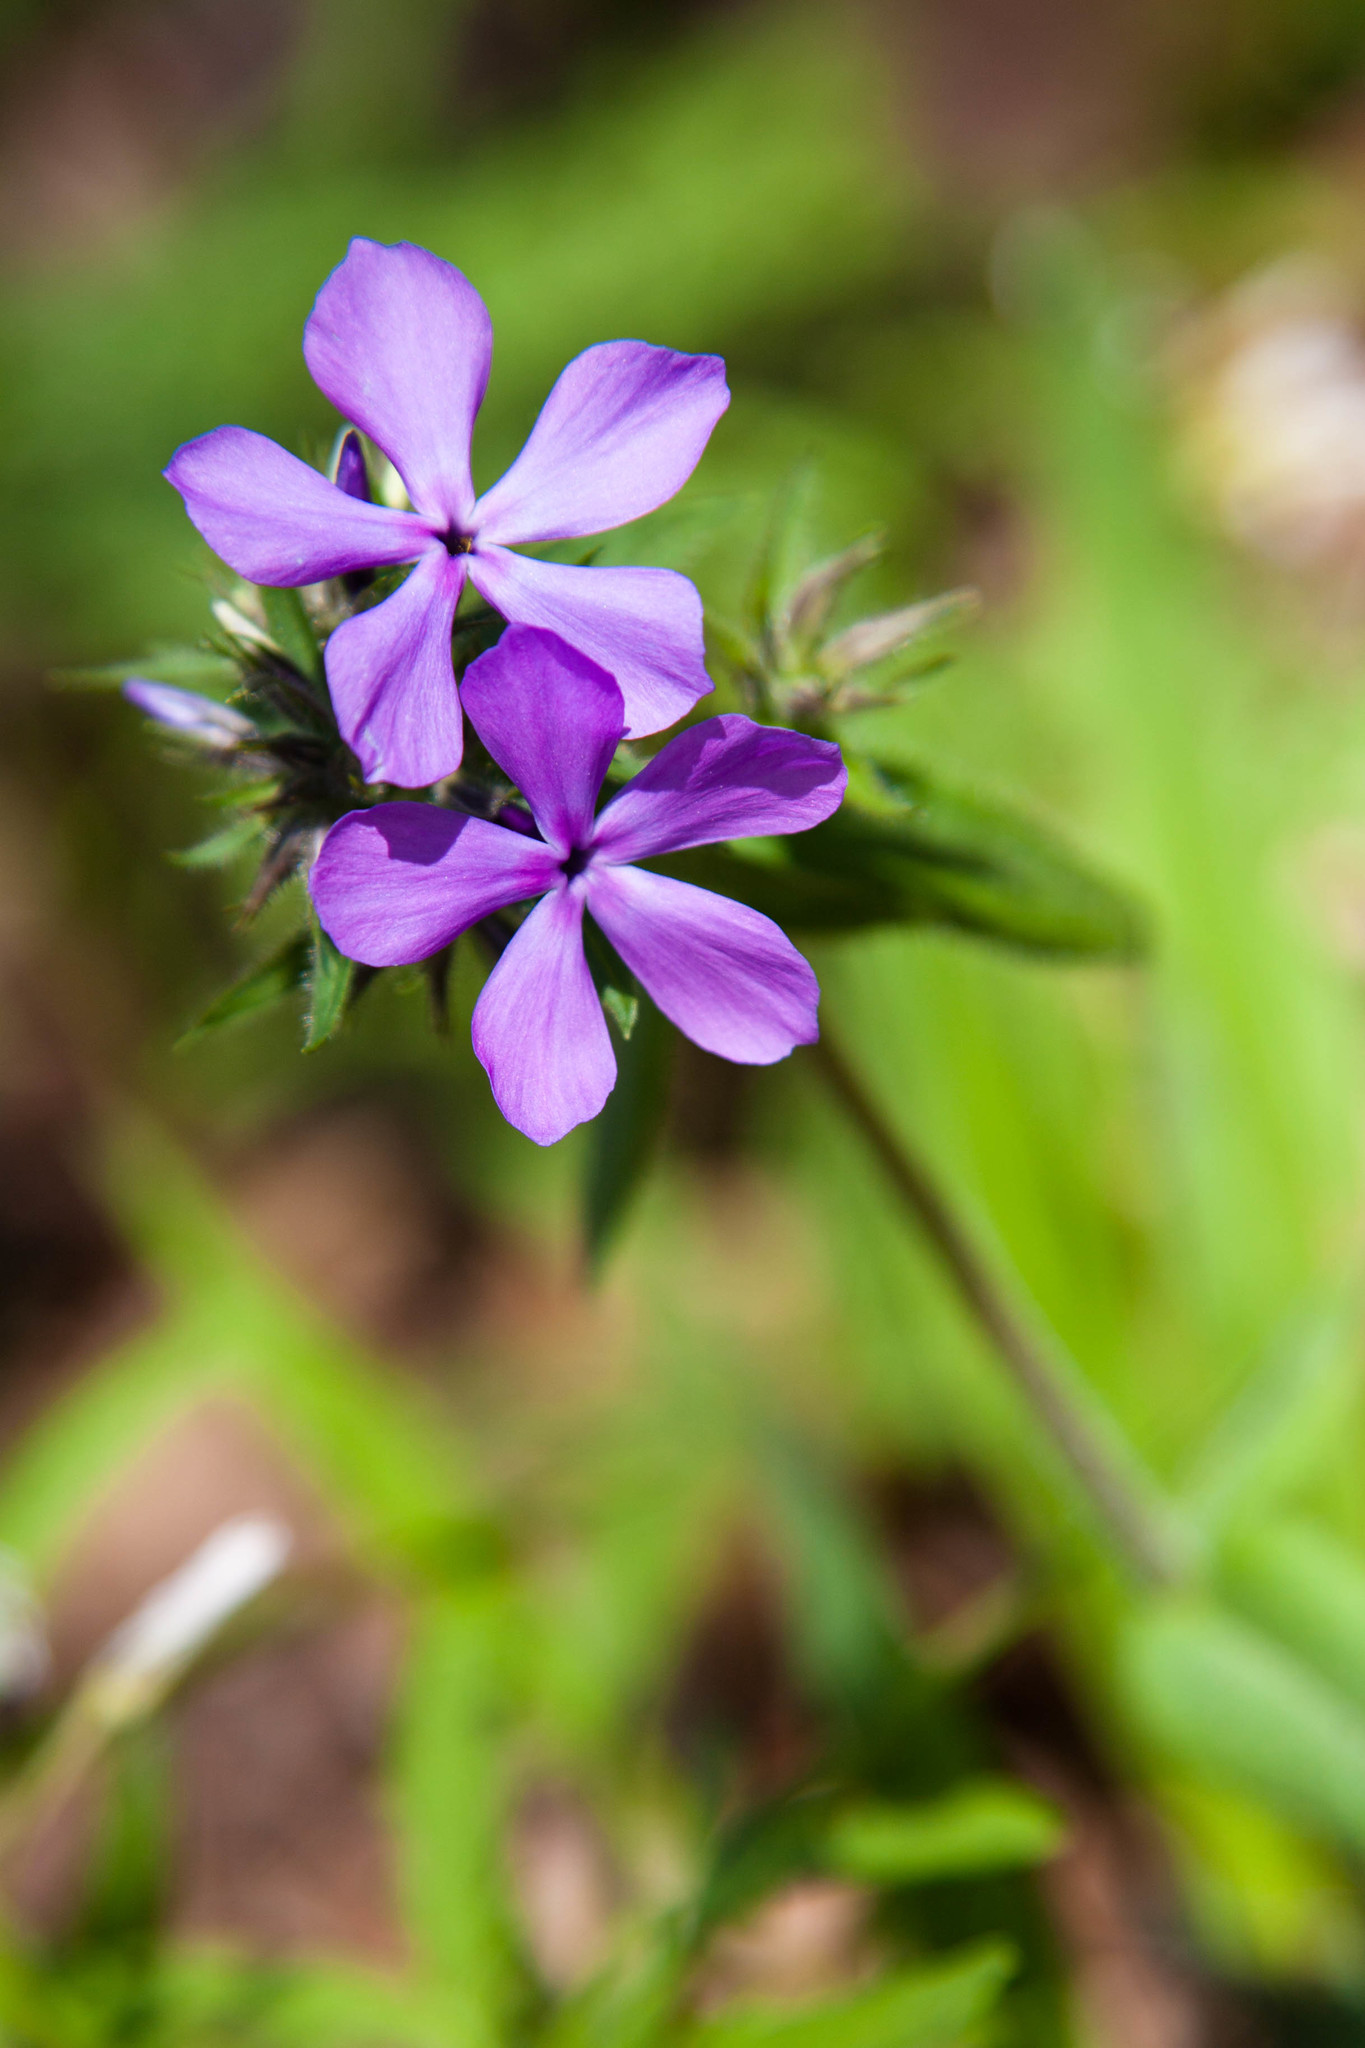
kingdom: Plantae
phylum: Tracheophyta
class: Magnoliopsida
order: Ericales
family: Polemoniaceae
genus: Phlox
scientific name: Phlox divaricata
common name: Blue phlox
